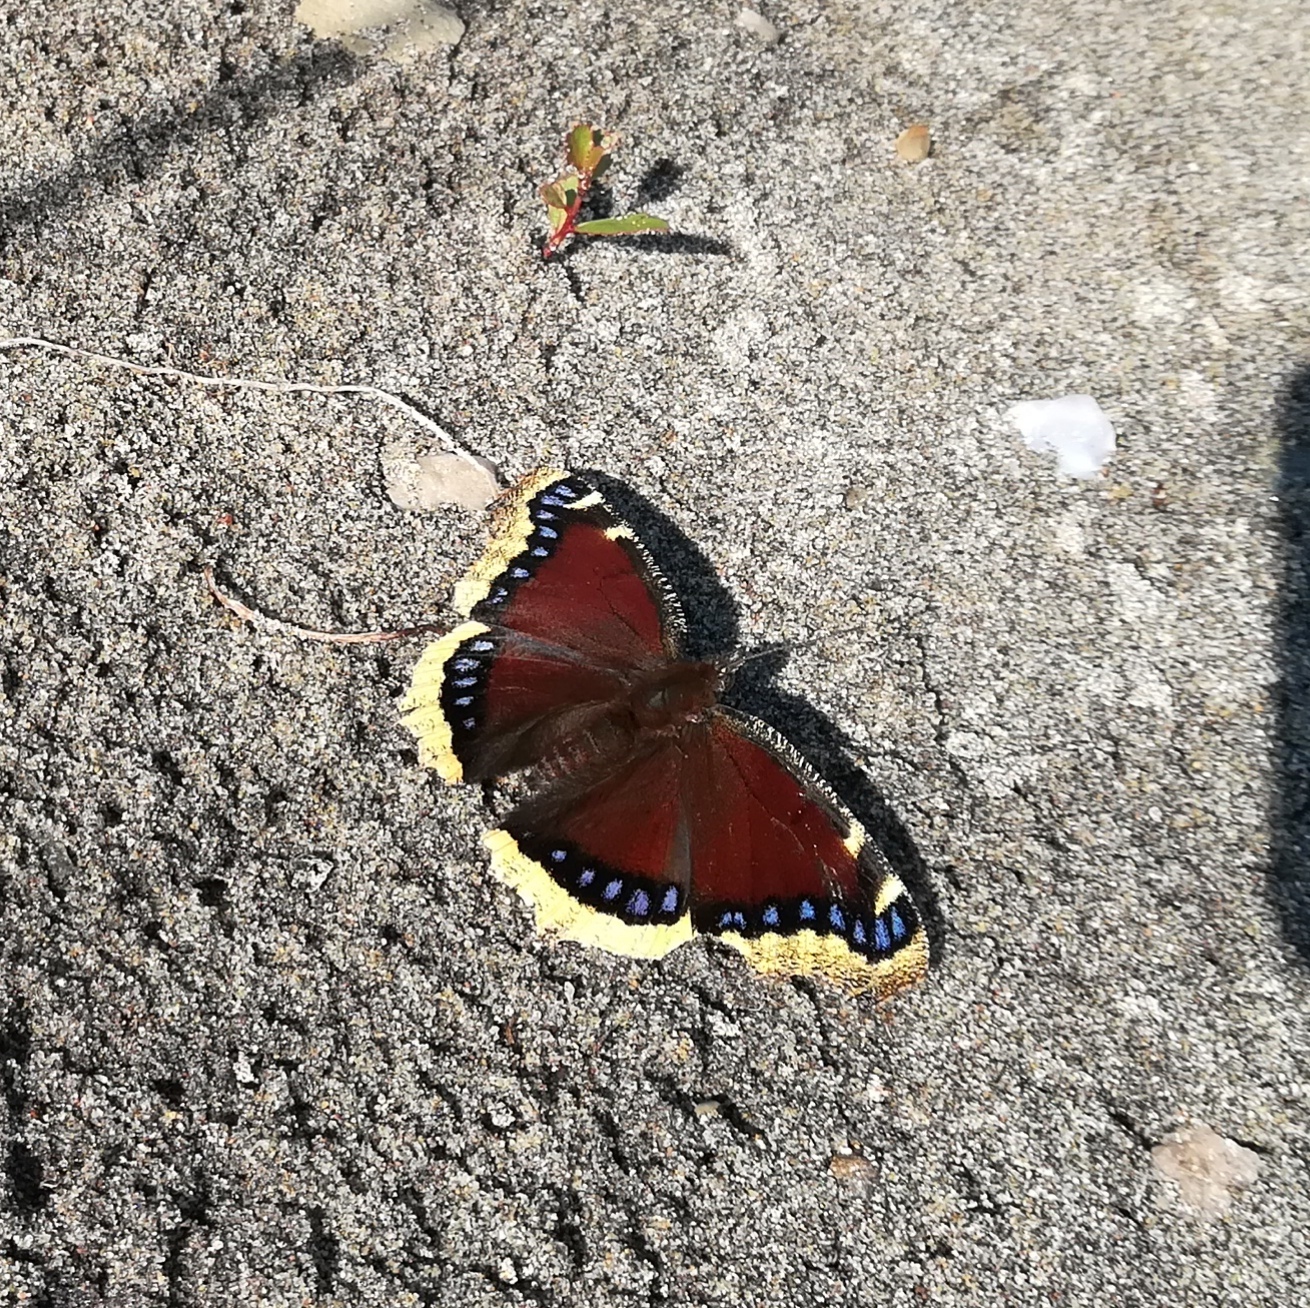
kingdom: Animalia
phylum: Arthropoda
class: Insecta
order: Lepidoptera
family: Nymphalidae
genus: Nymphalis
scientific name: Nymphalis antiopa
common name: Camberwell beauty
